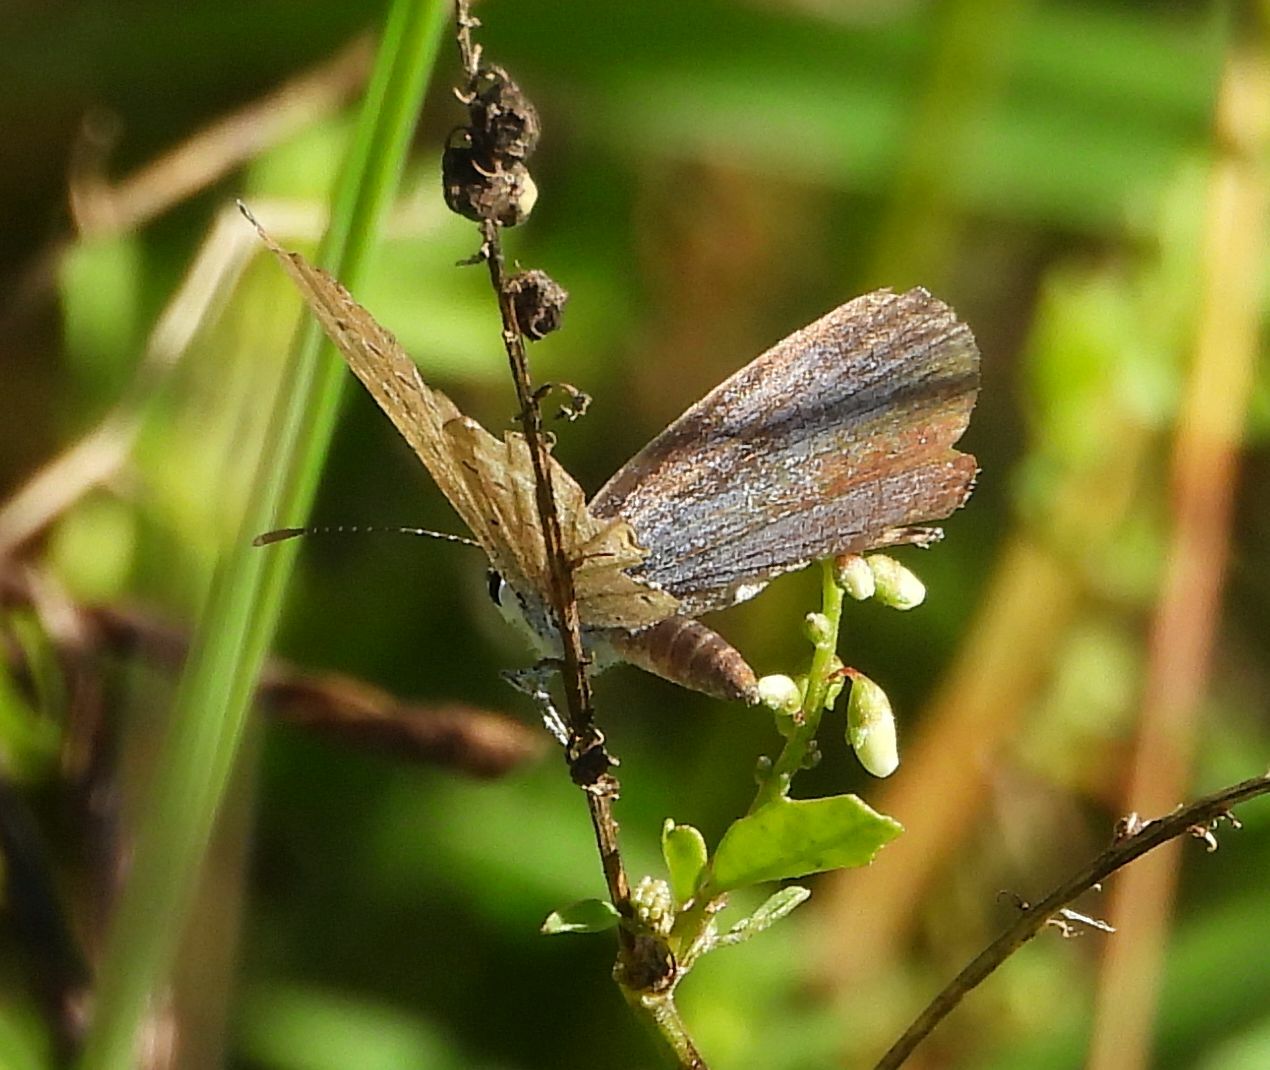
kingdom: Animalia
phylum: Arthropoda
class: Insecta
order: Lepidoptera
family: Lycaenidae
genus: Elkalyce
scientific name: Elkalyce comyntas
